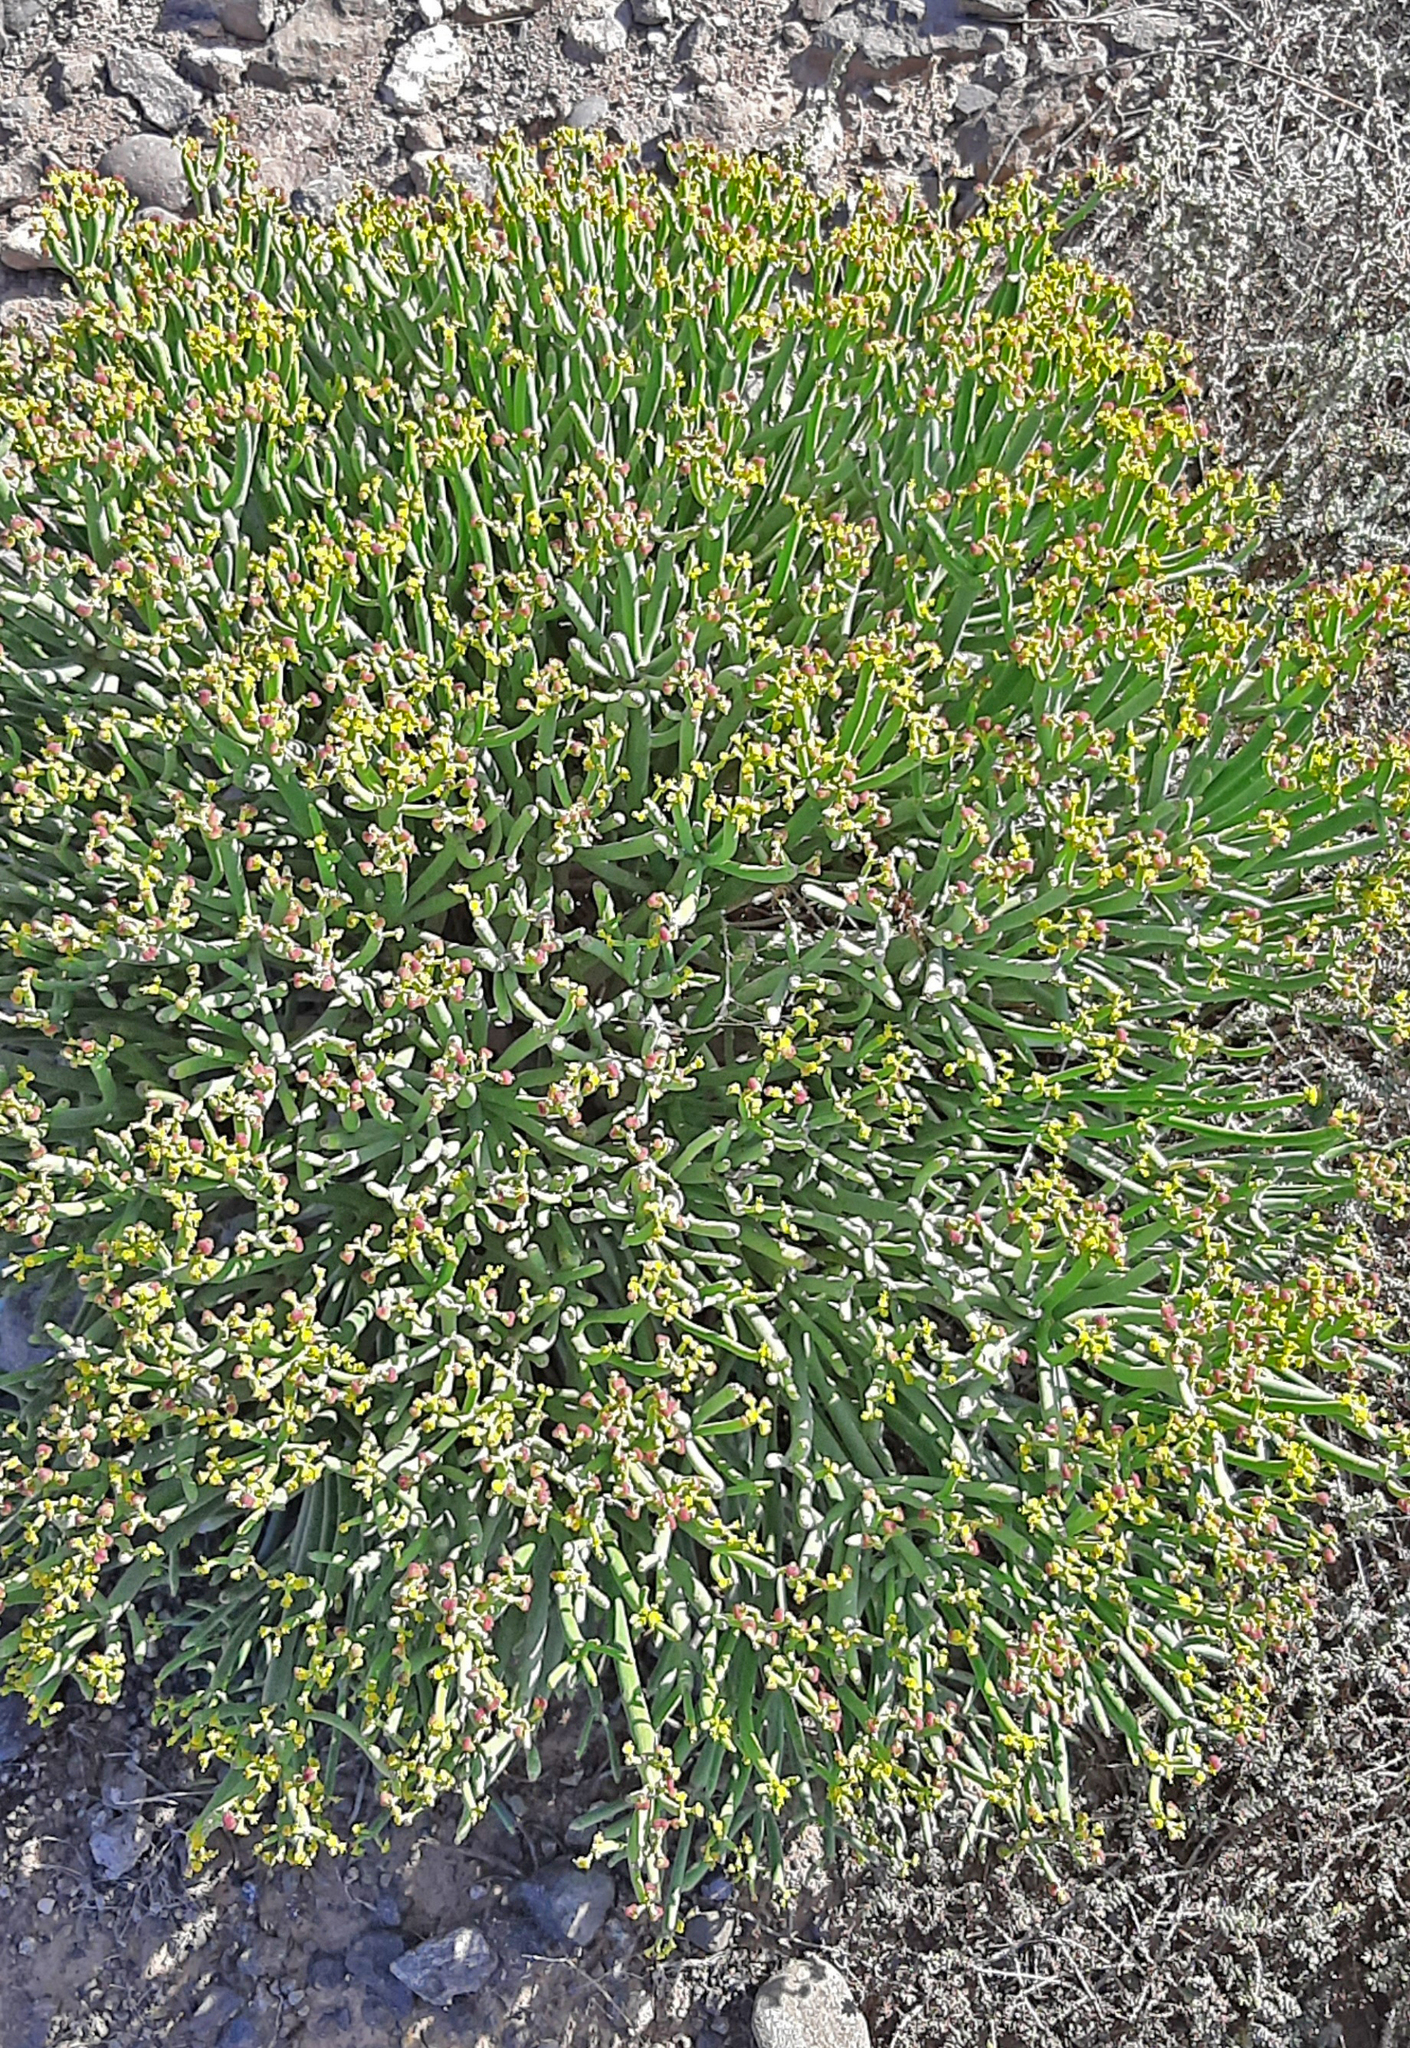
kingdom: Plantae
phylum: Tracheophyta
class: Magnoliopsida
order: Malpighiales
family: Euphorbiaceae
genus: Euphorbia
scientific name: Euphorbia aphylla
